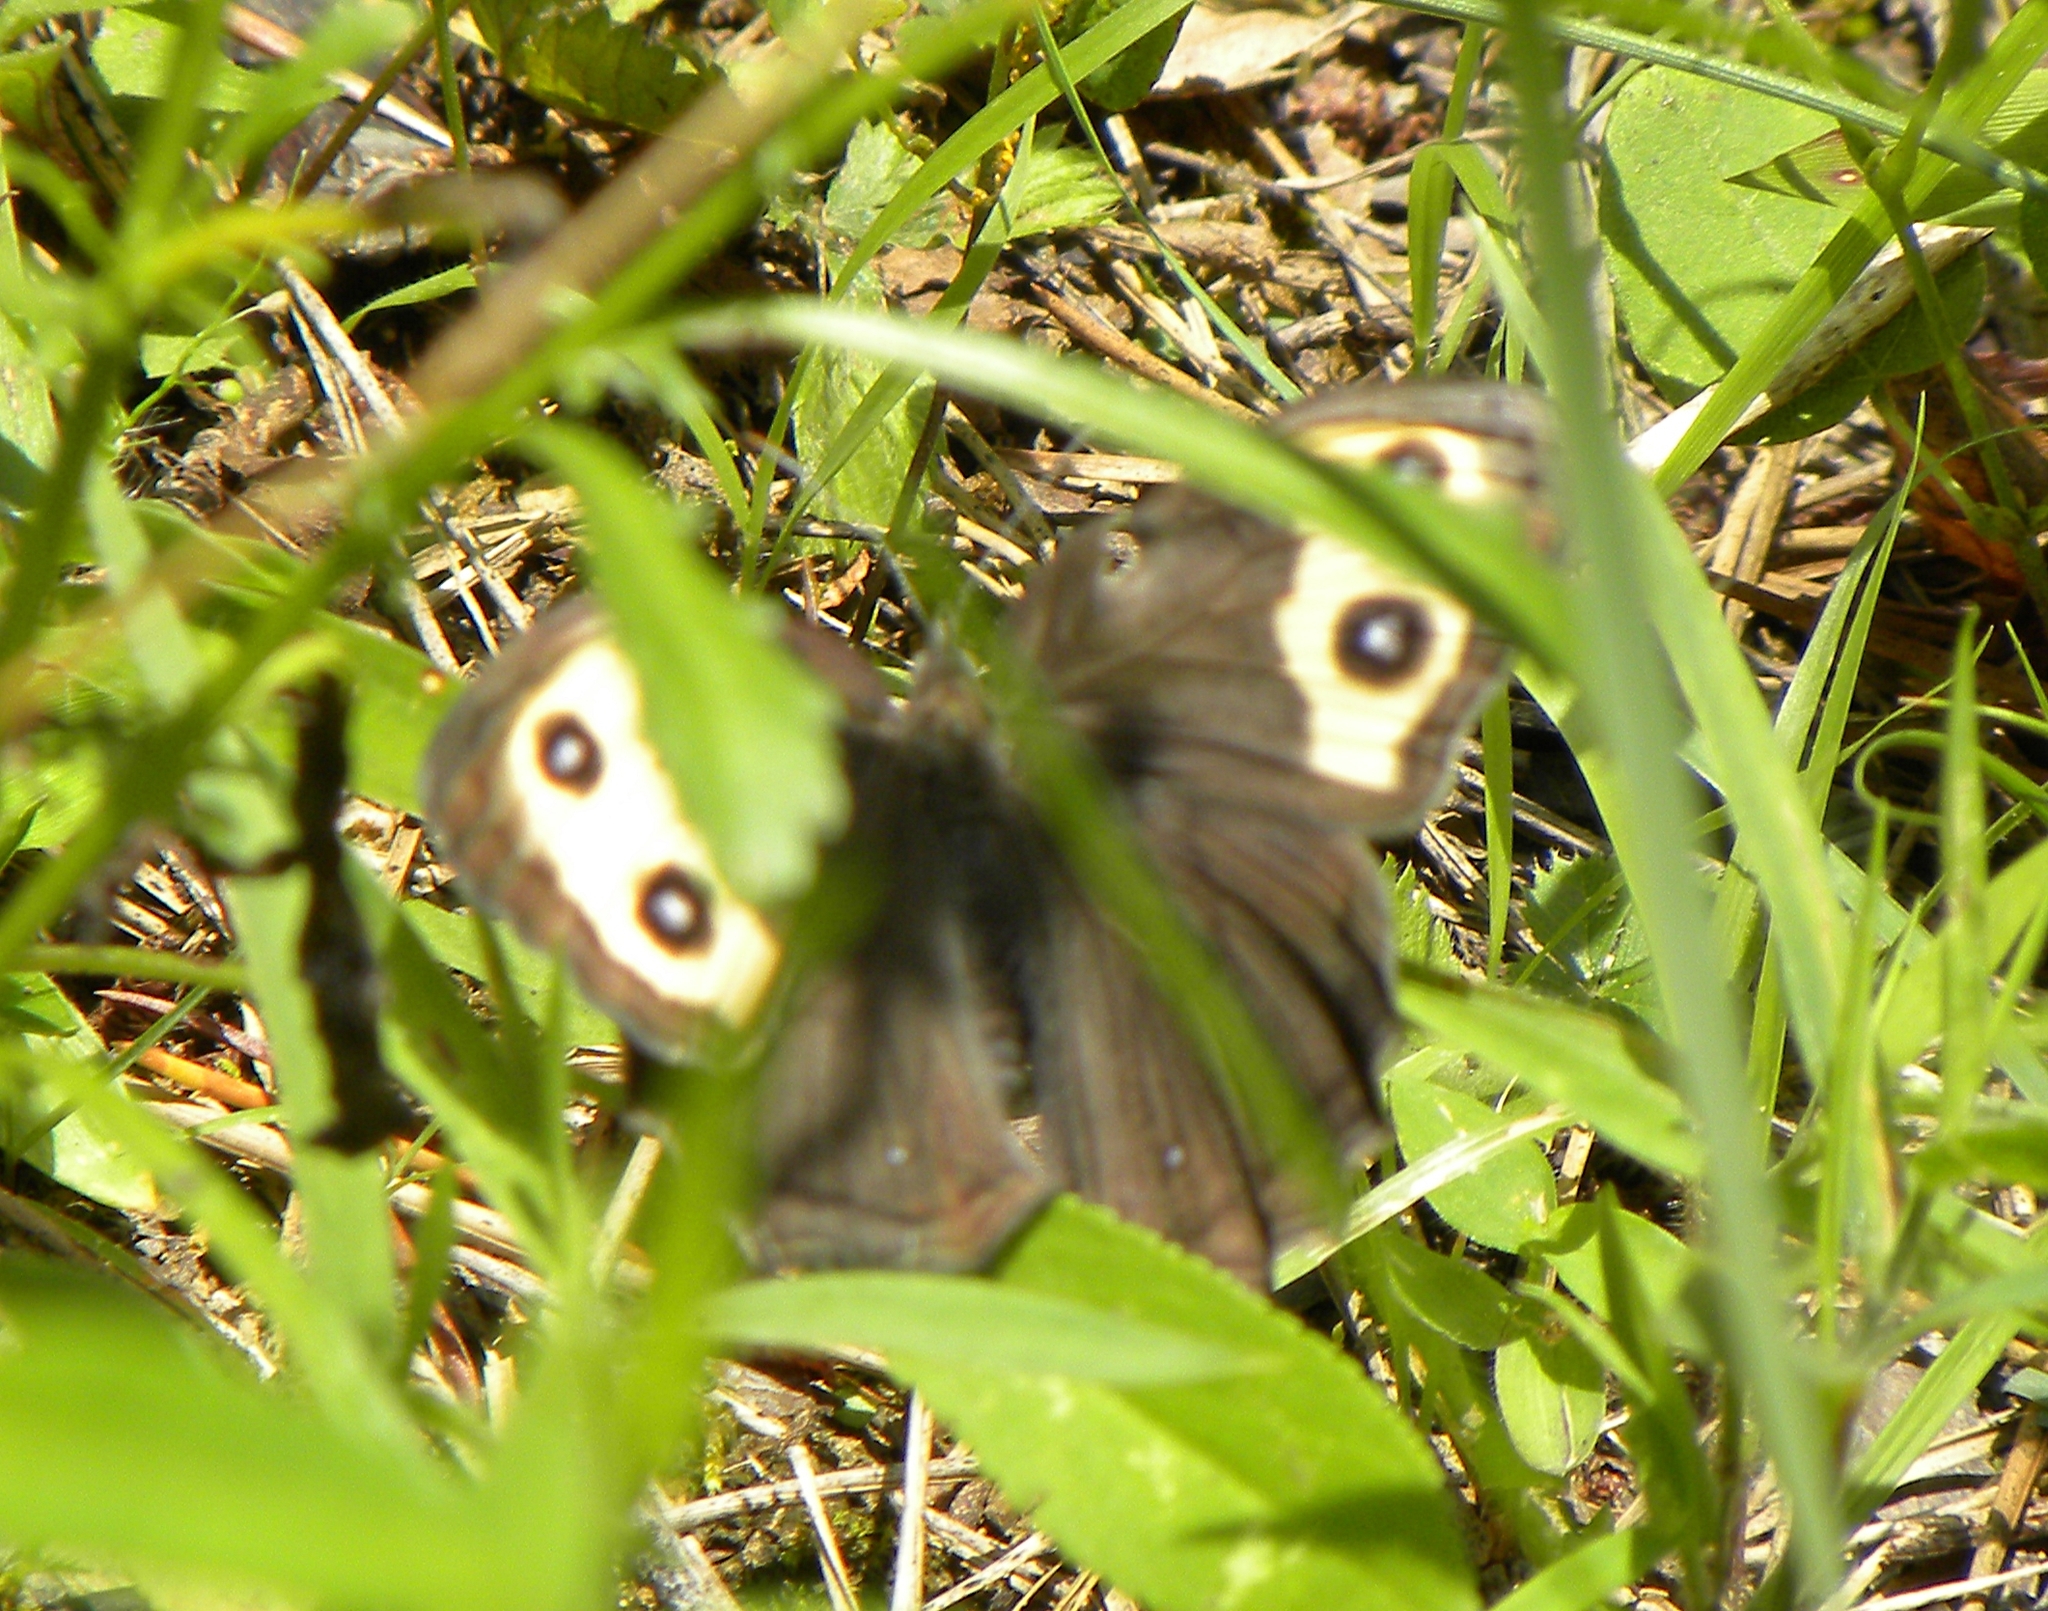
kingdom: Animalia
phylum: Arthropoda
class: Insecta
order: Lepidoptera
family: Nymphalidae
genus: Cercyonis
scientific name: Cercyonis pegala
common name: Common wood-nymph
